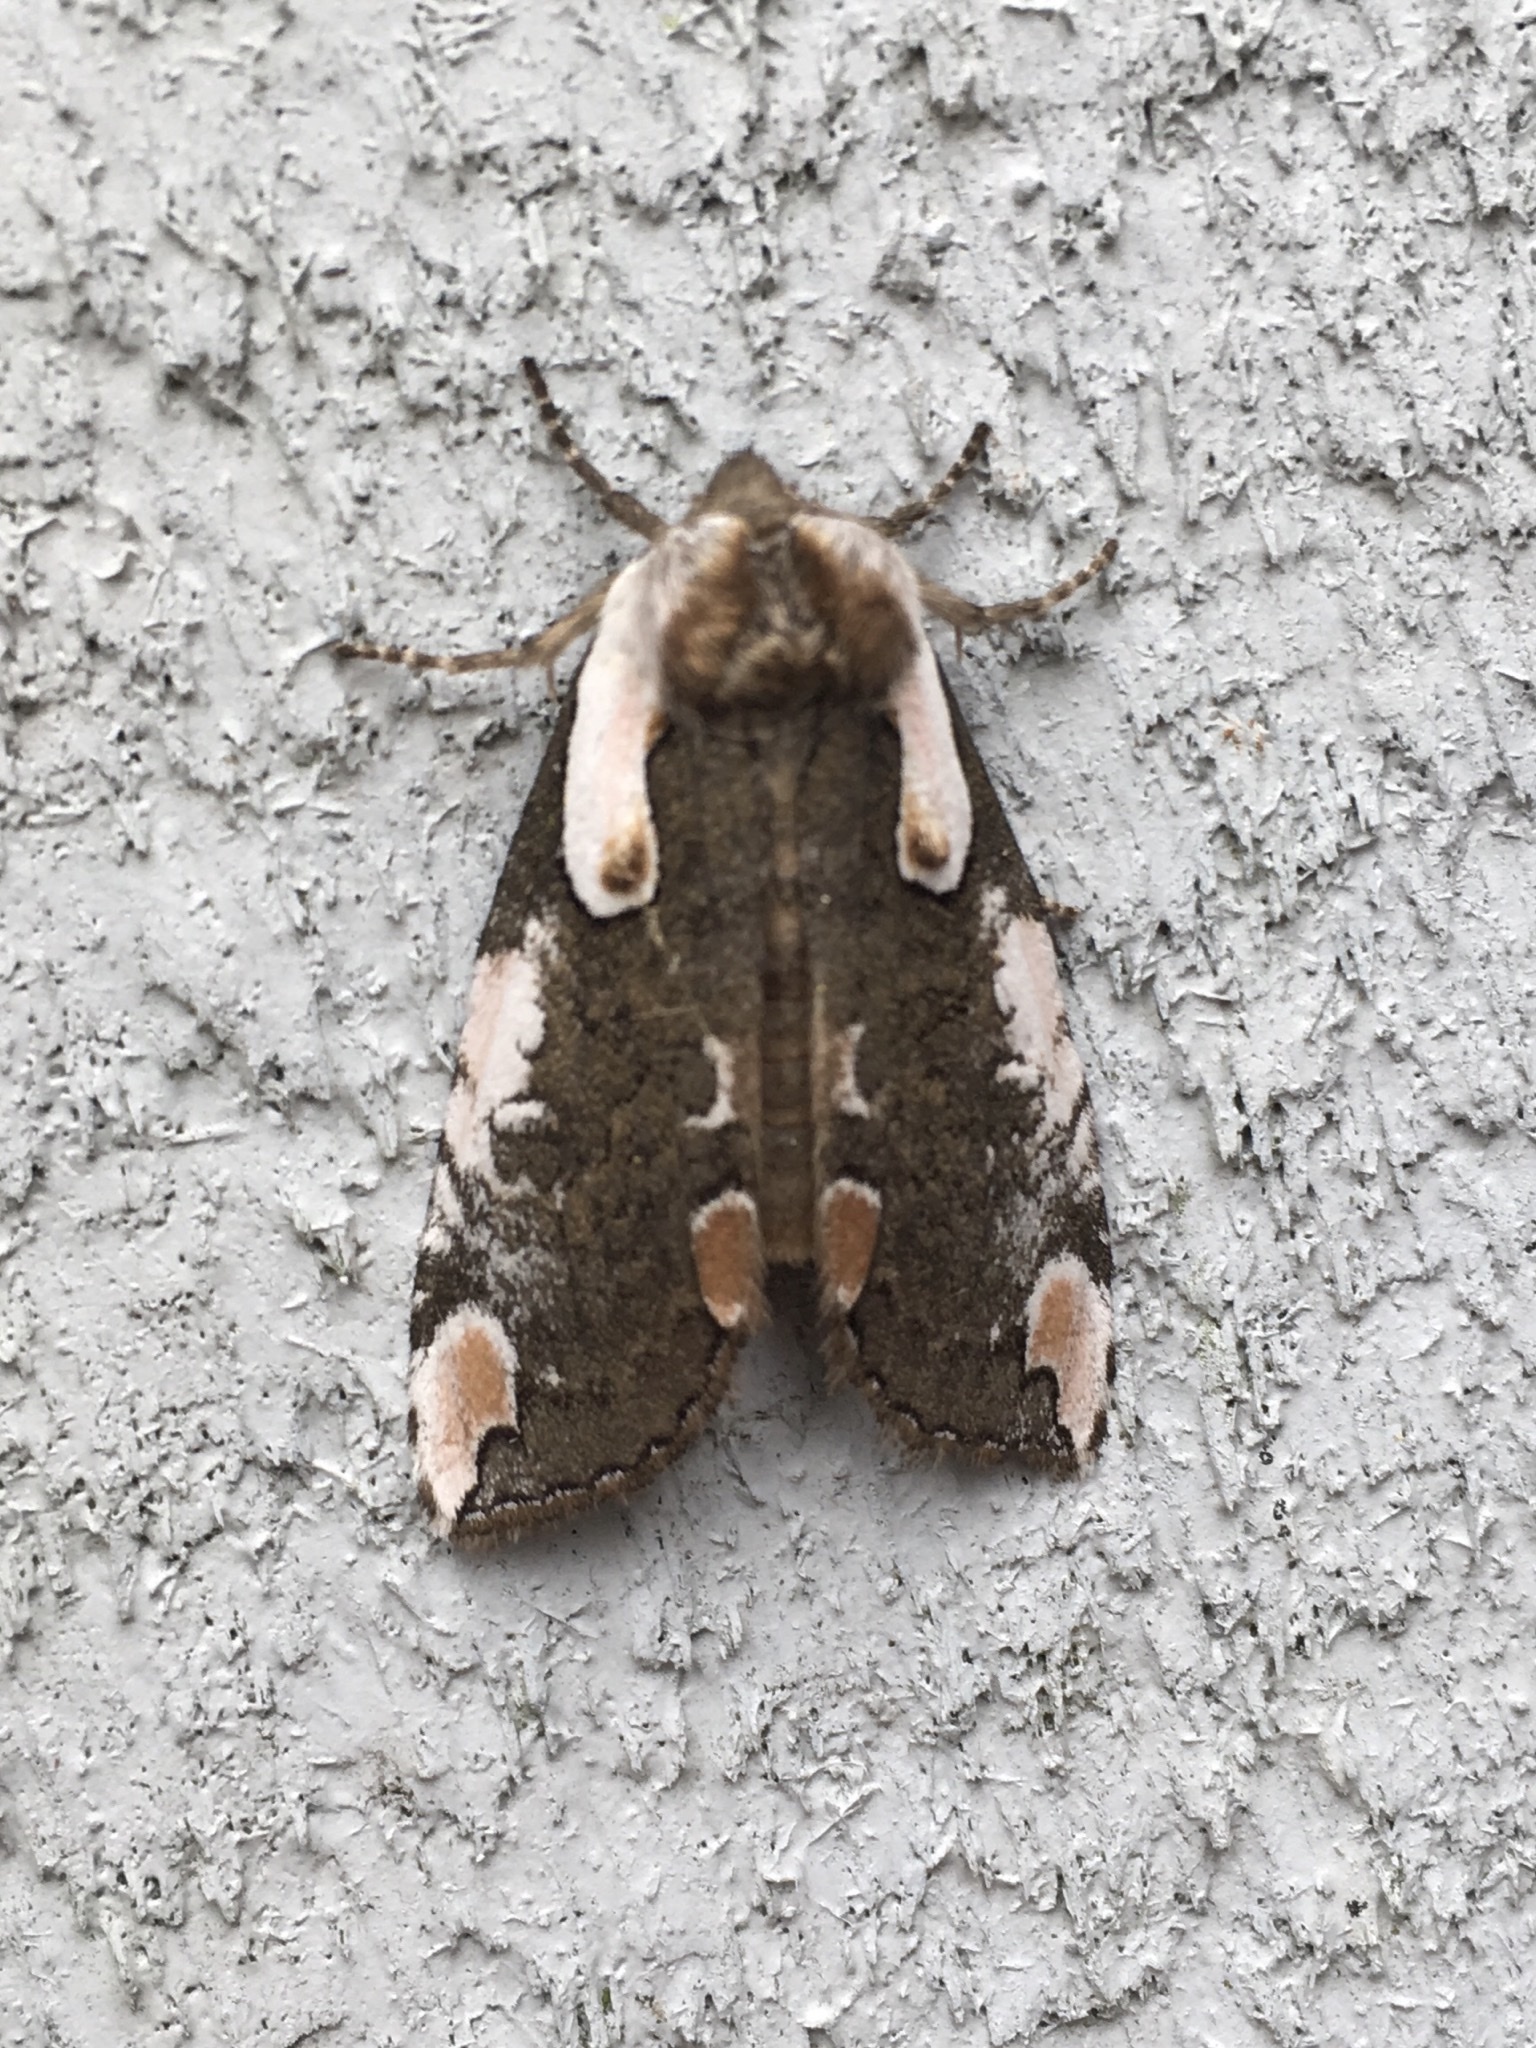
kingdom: Animalia
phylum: Arthropoda
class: Insecta
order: Lepidoptera
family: Drepanidae
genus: Euthyatira
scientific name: Euthyatira pudens
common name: Dogwood thyatirid moth
